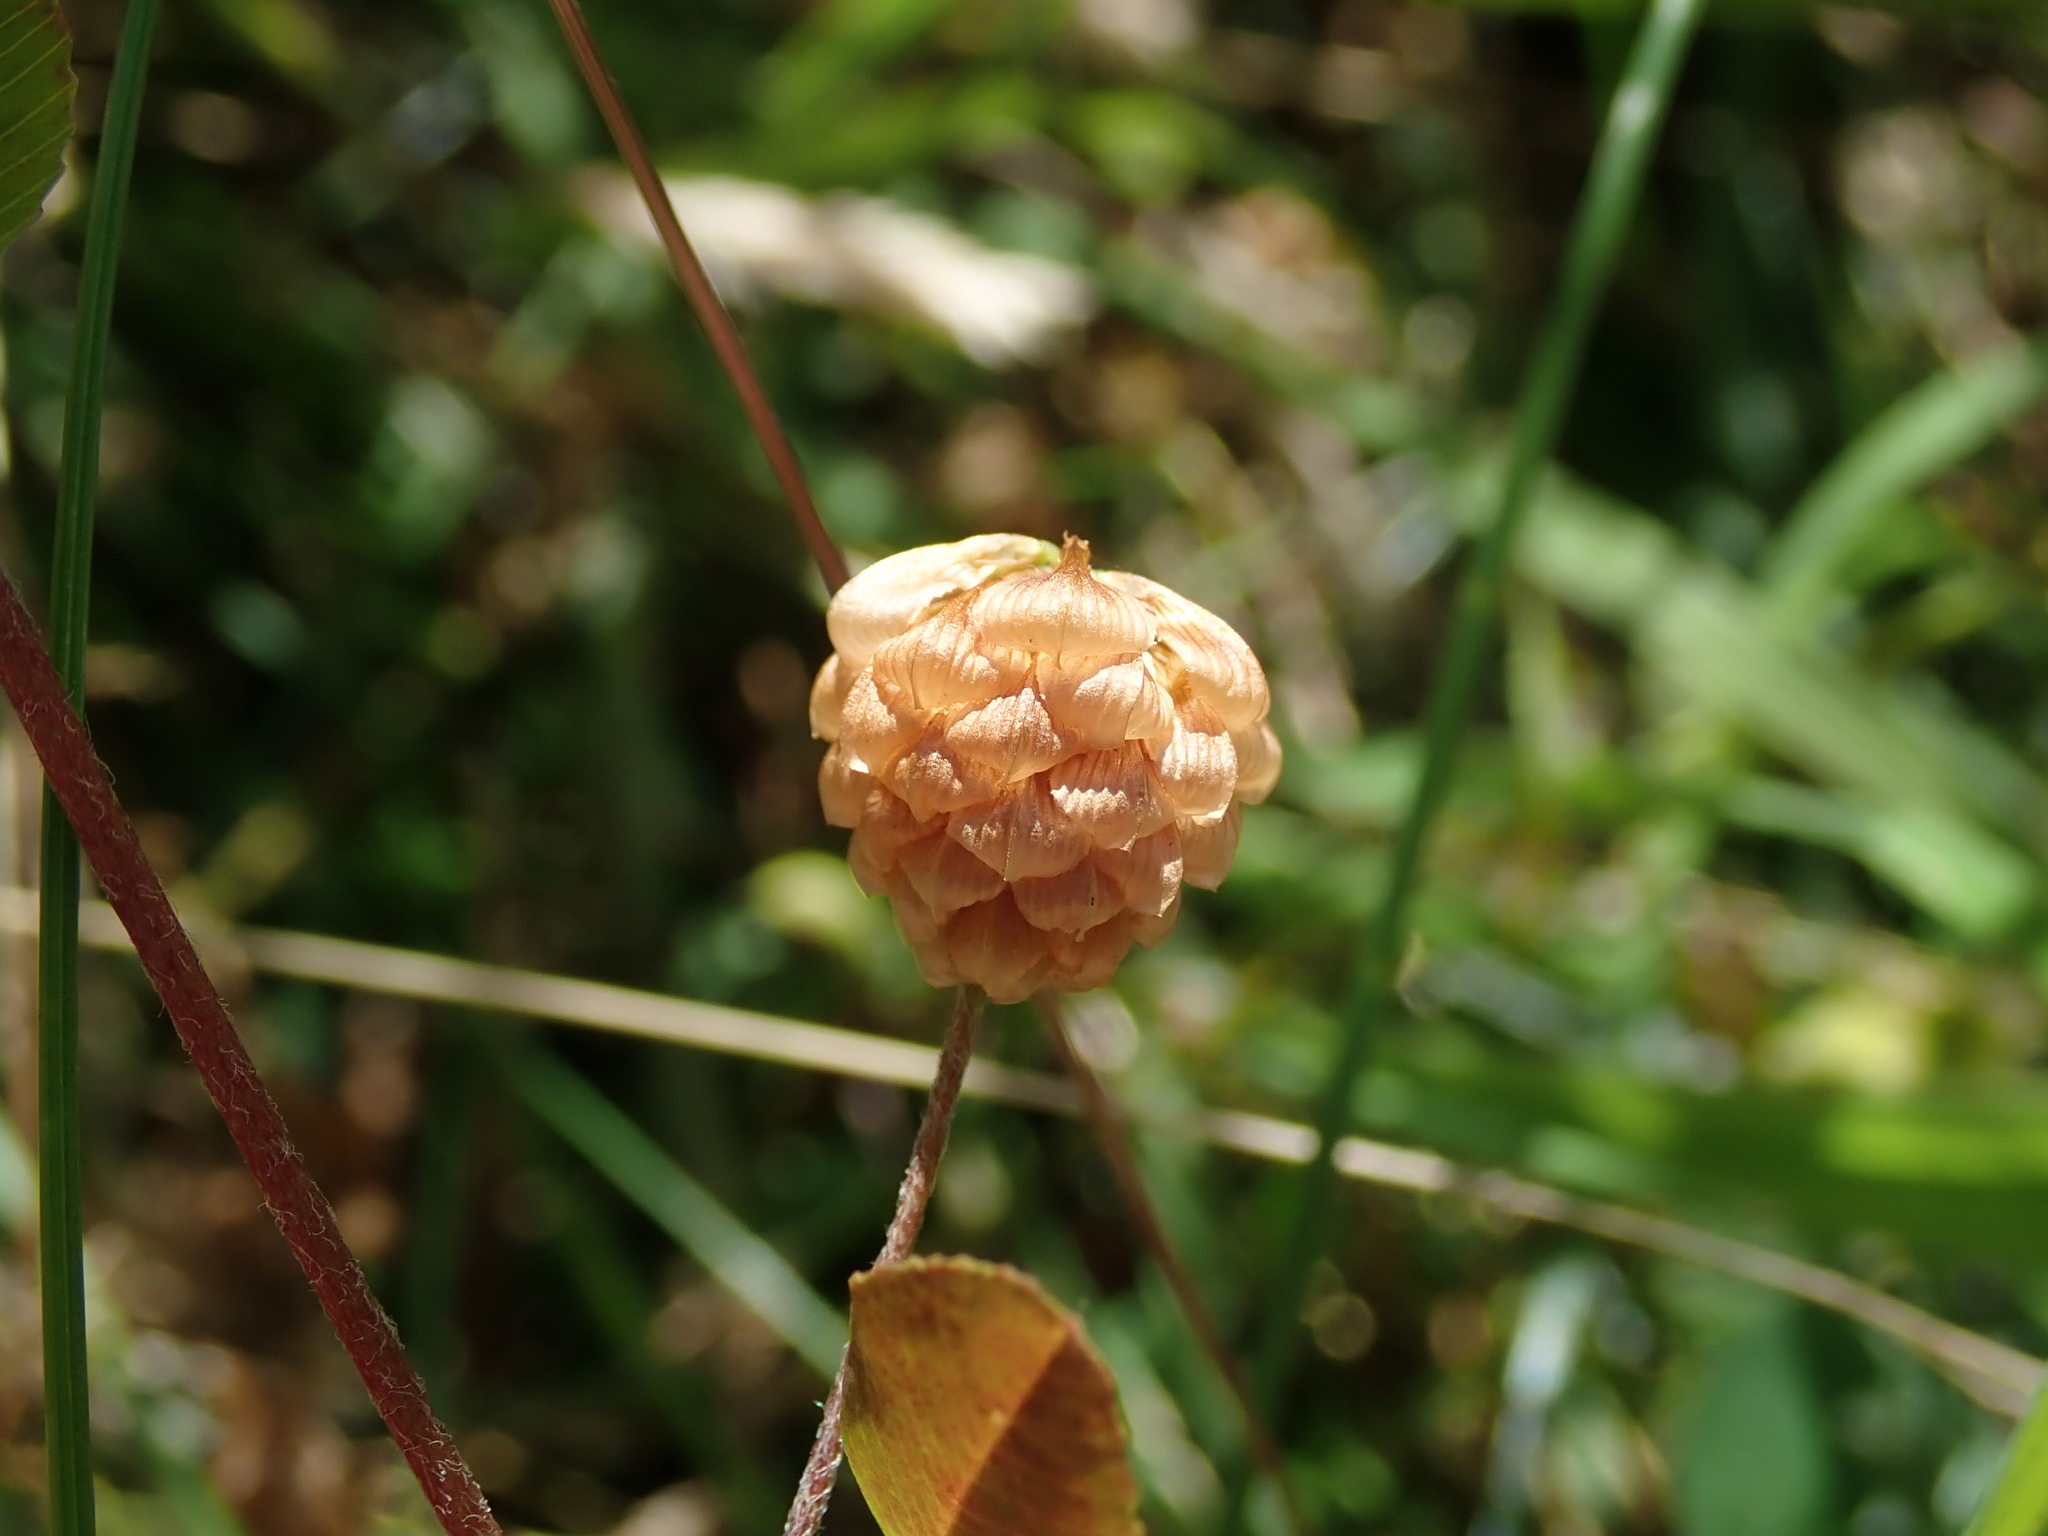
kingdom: Plantae
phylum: Tracheophyta
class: Magnoliopsida
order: Fabales
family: Fabaceae
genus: Trifolium
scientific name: Trifolium campestre
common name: Field clover
